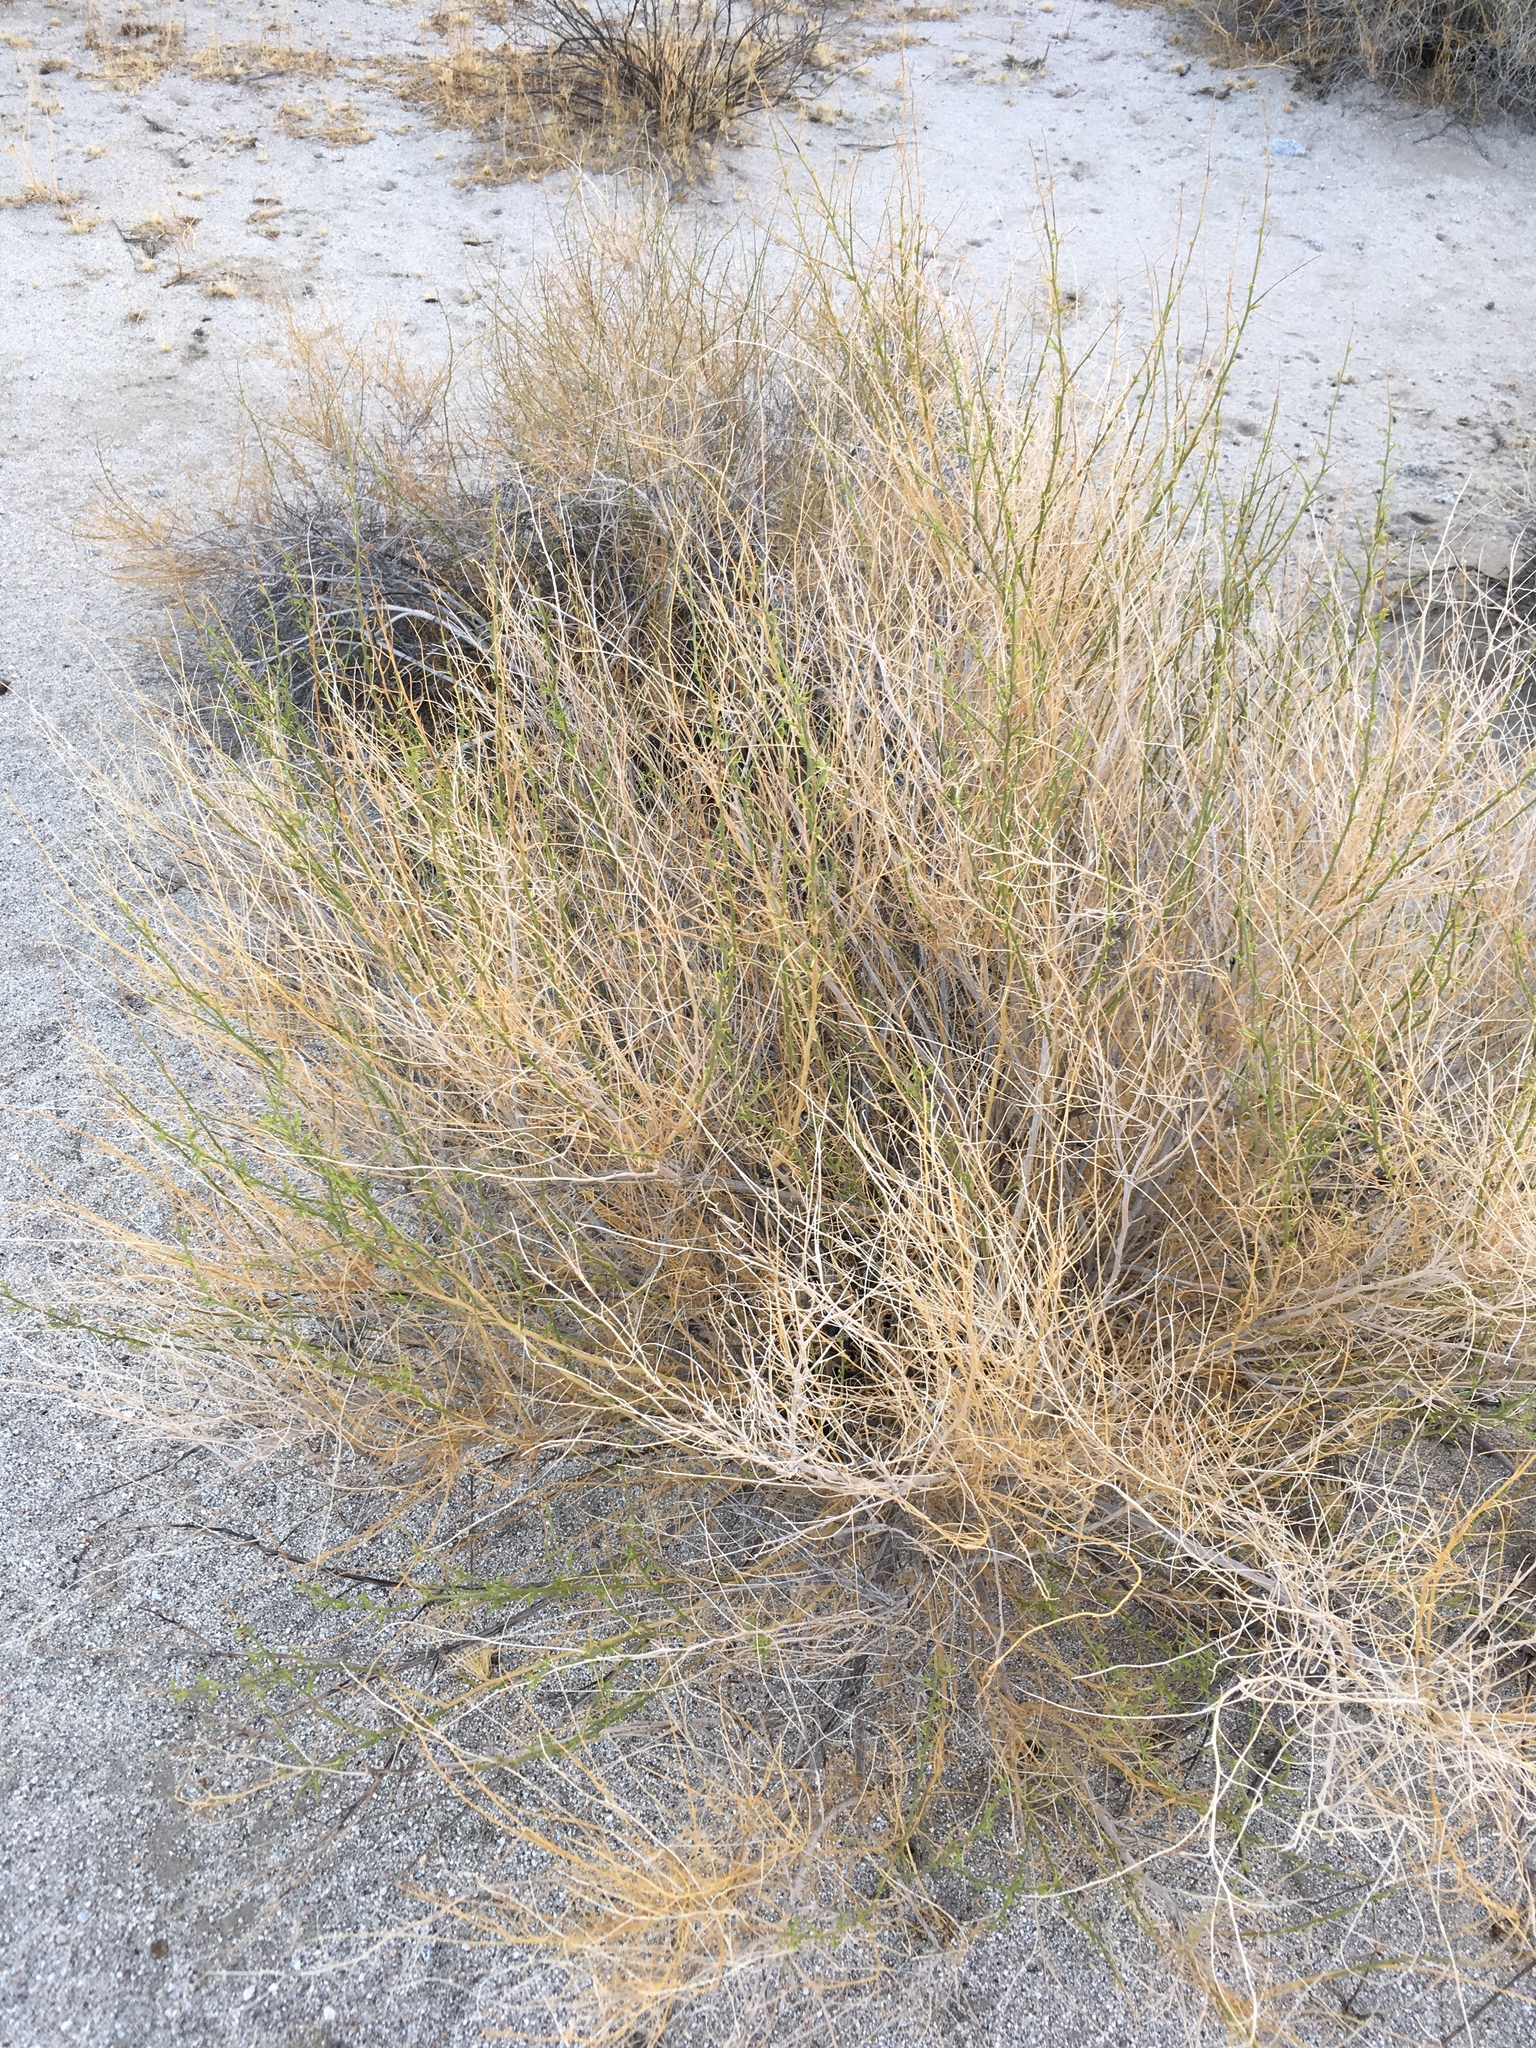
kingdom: Plantae
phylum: Tracheophyta
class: Magnoliopsida
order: Asterales
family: Asteraceae
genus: Ambrosia
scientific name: Ambrosia salsola
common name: Burrobrush
